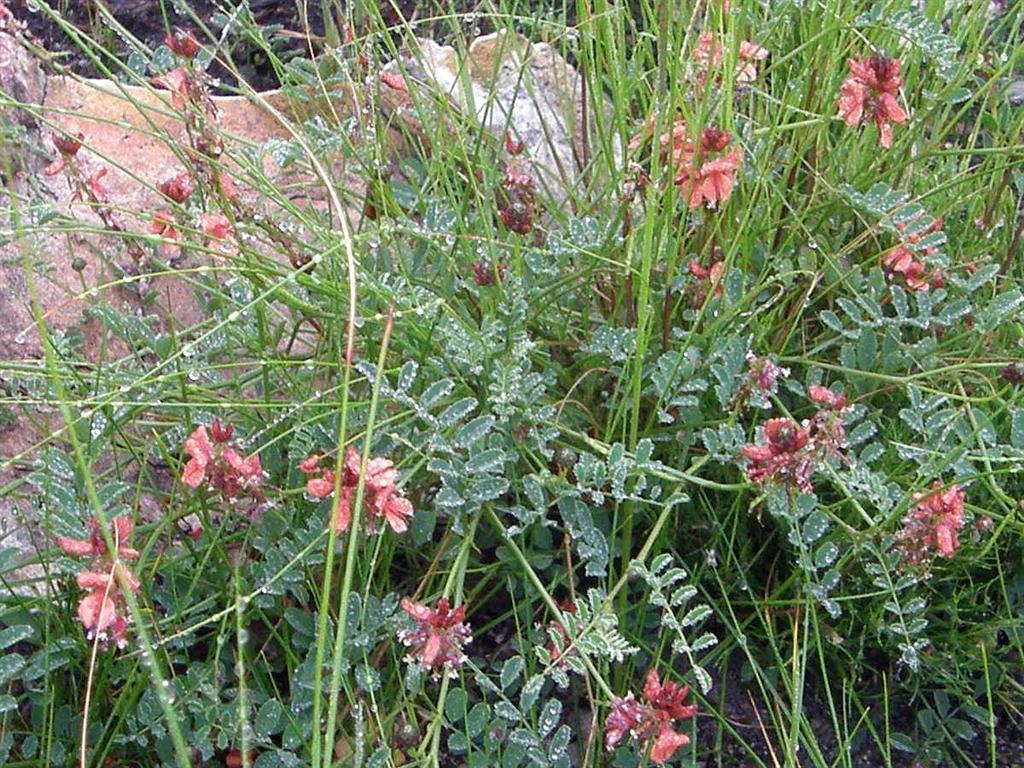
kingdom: Plantae
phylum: Tracheophyta
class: Magnoliopsida
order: Fabales
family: Fabaceae
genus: Indigofera
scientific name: Indigofera capillaris
